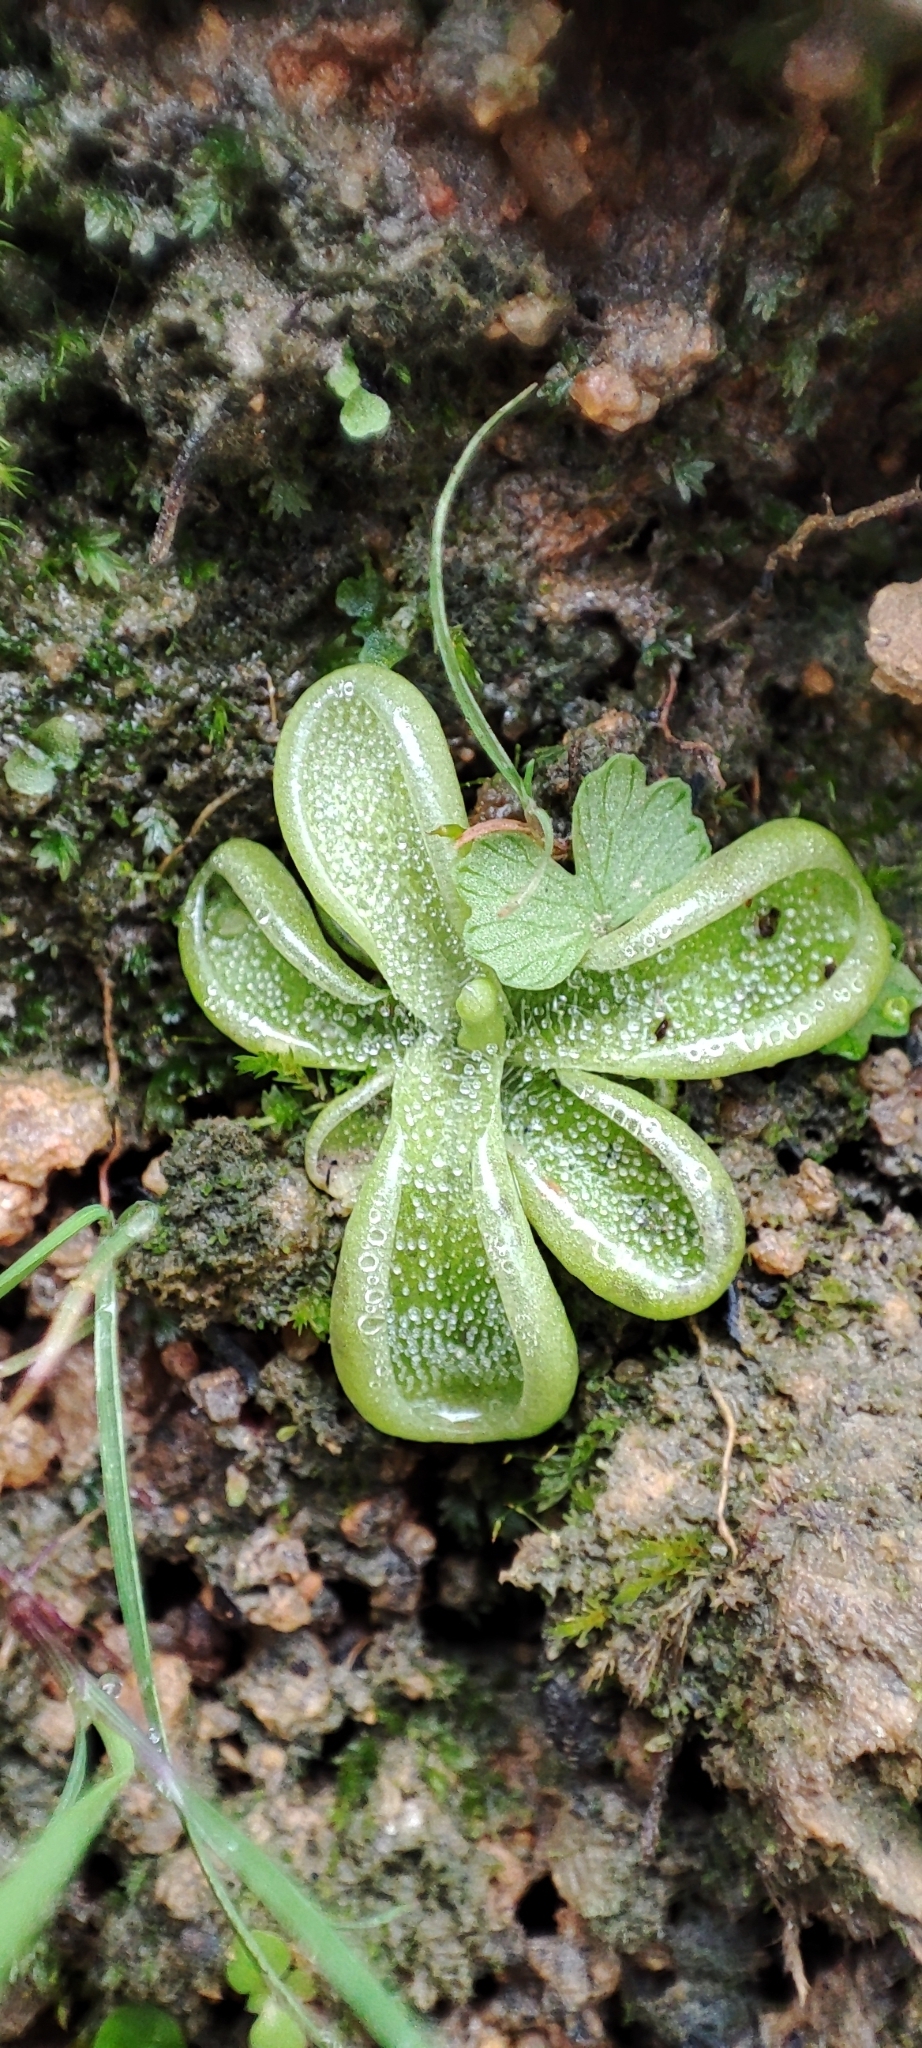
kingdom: Plantae
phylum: Tracheophyta
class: Magnoliopsida
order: Lamiales
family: Lentibulariaceae
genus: Pinguicula
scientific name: Pinguicula crenatiloba
